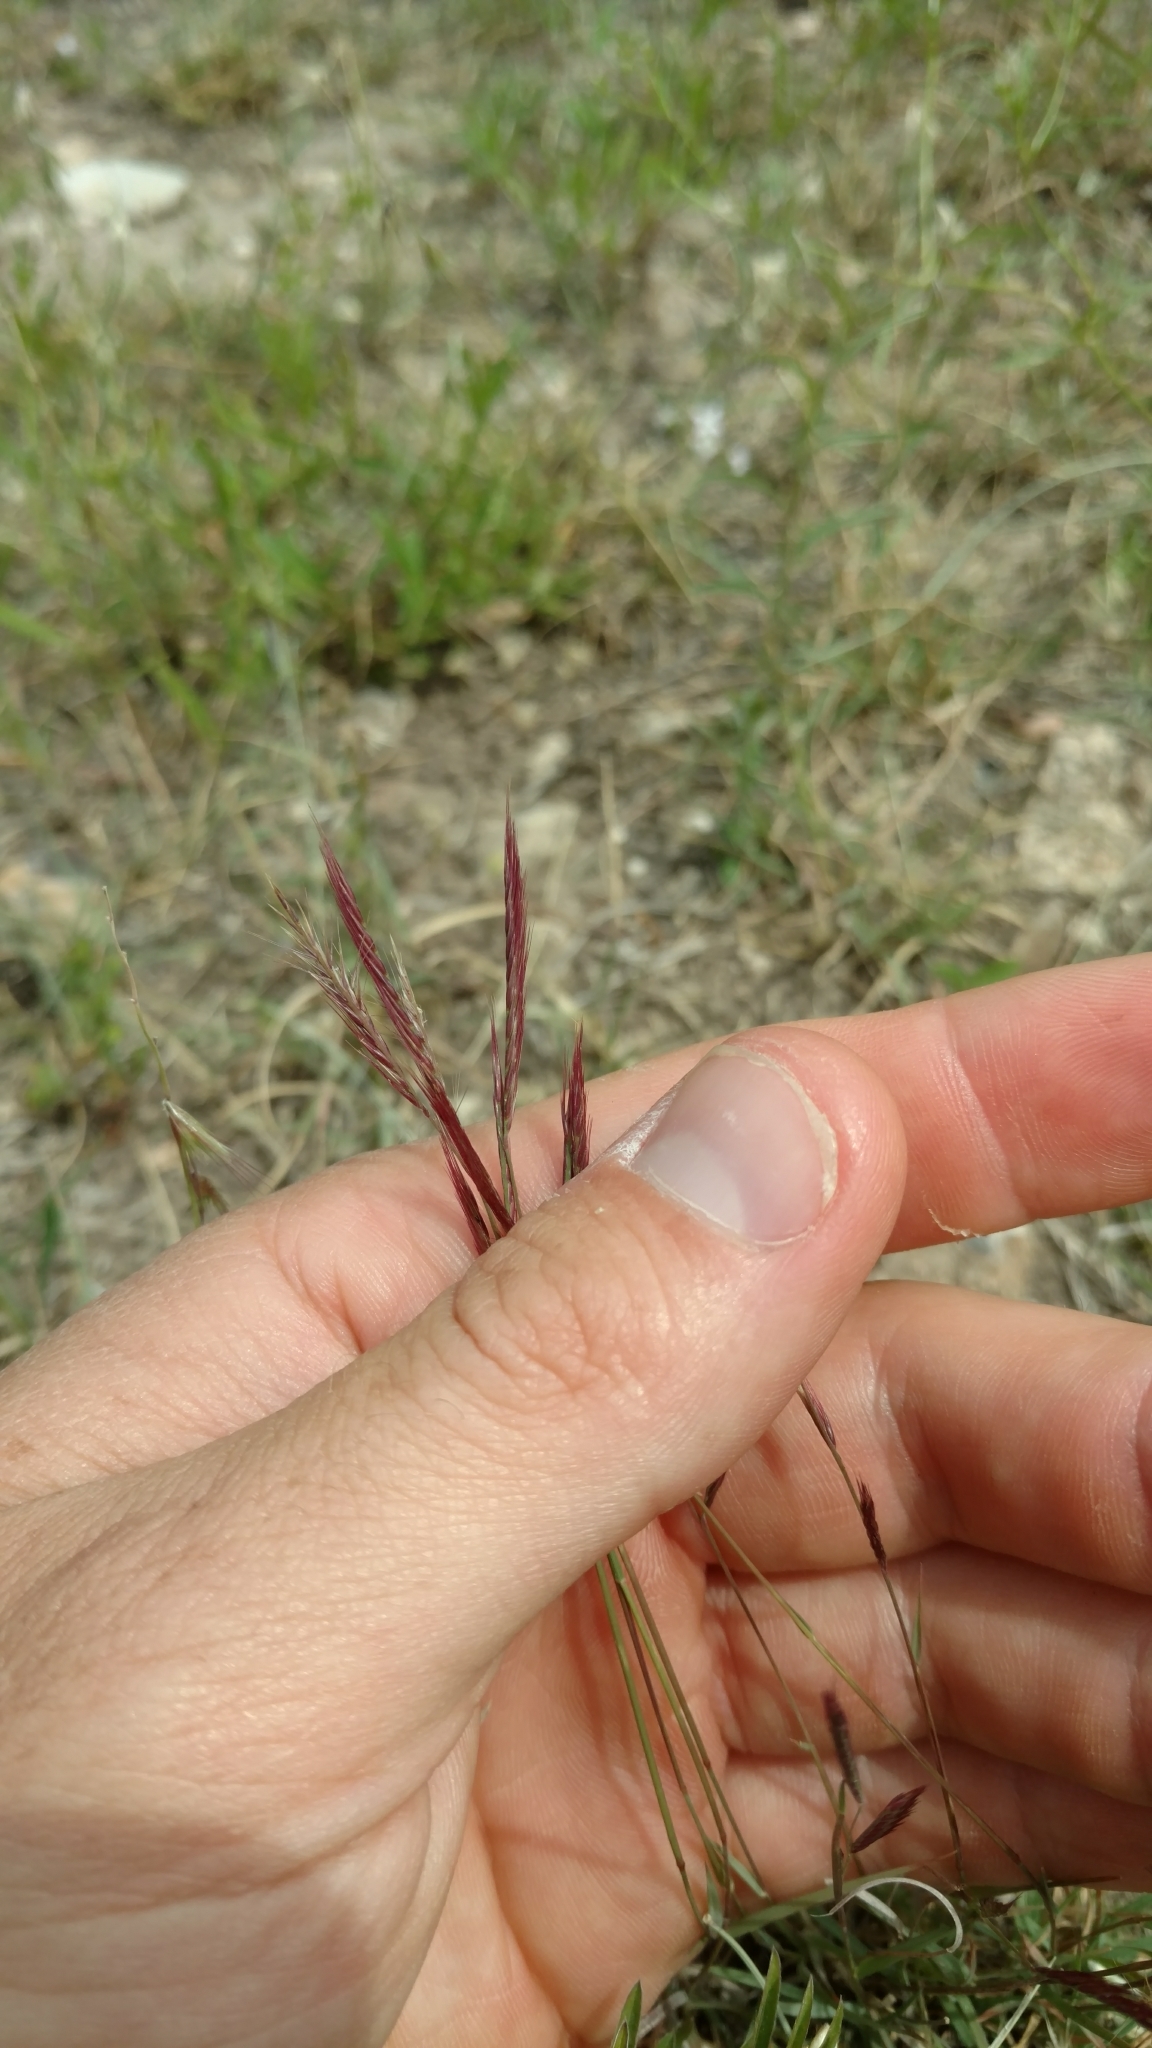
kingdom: Plantae
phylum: Tracheophyta
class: Liliopsida
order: Poales
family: Poaceae
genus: Bouteloua
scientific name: Bouteloua trifida
